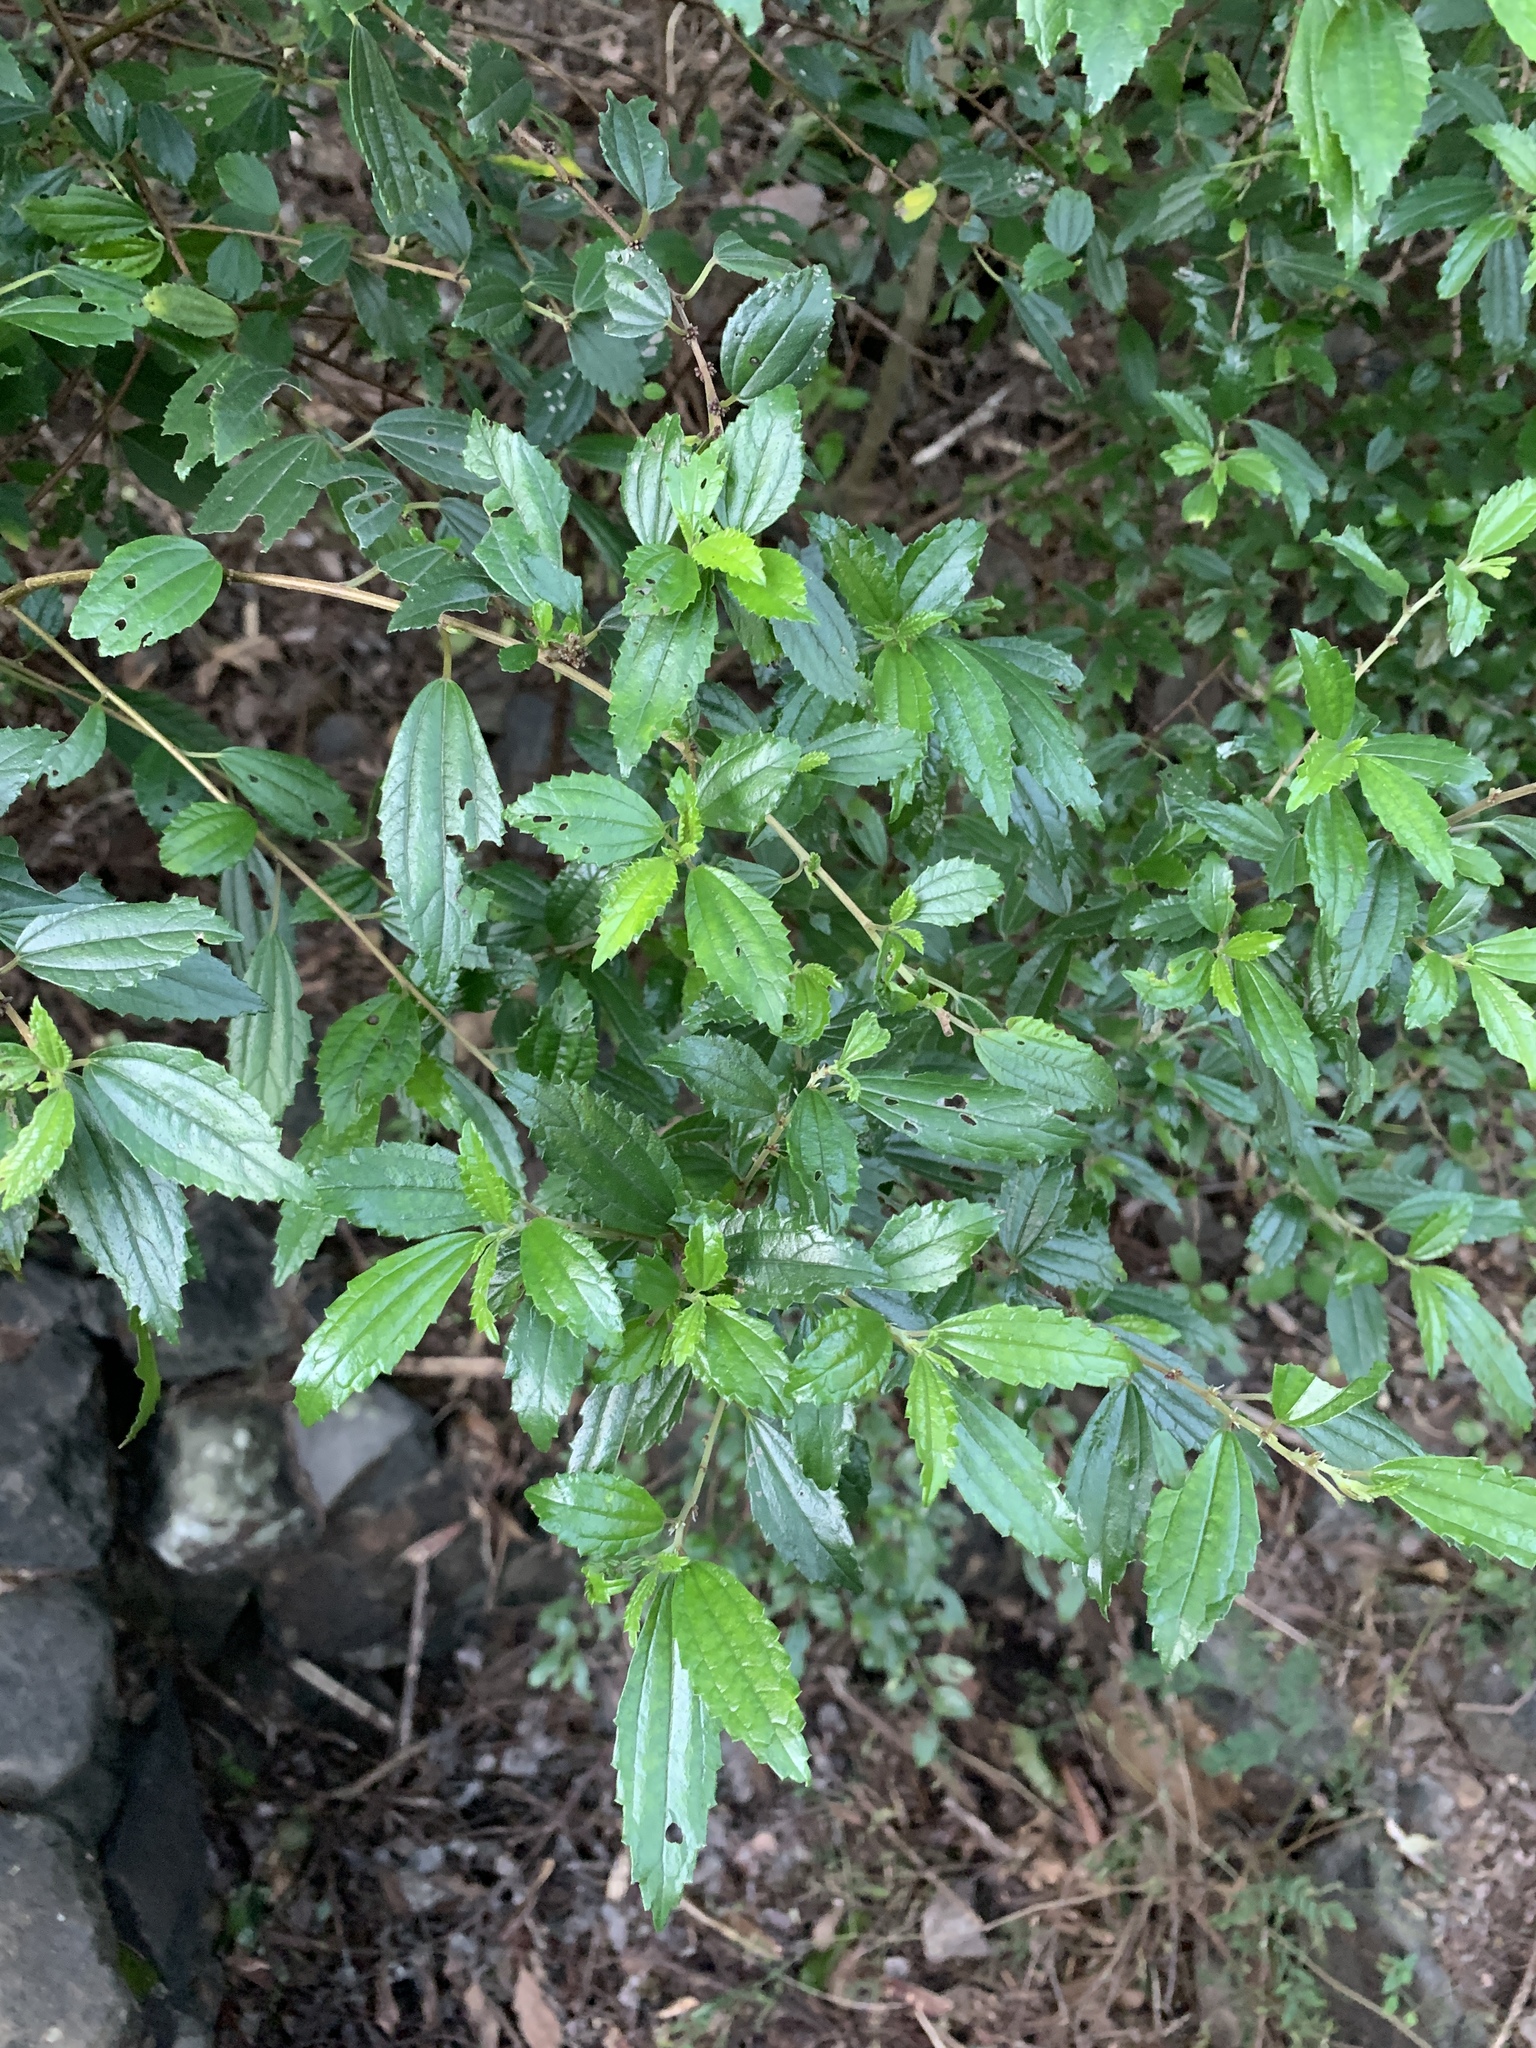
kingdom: Plantae
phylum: Tracheophyta
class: Magnoliopsida
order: Rosales
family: Urticaceae
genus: Pouzolzia
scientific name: Pouzolzia sanguinea
